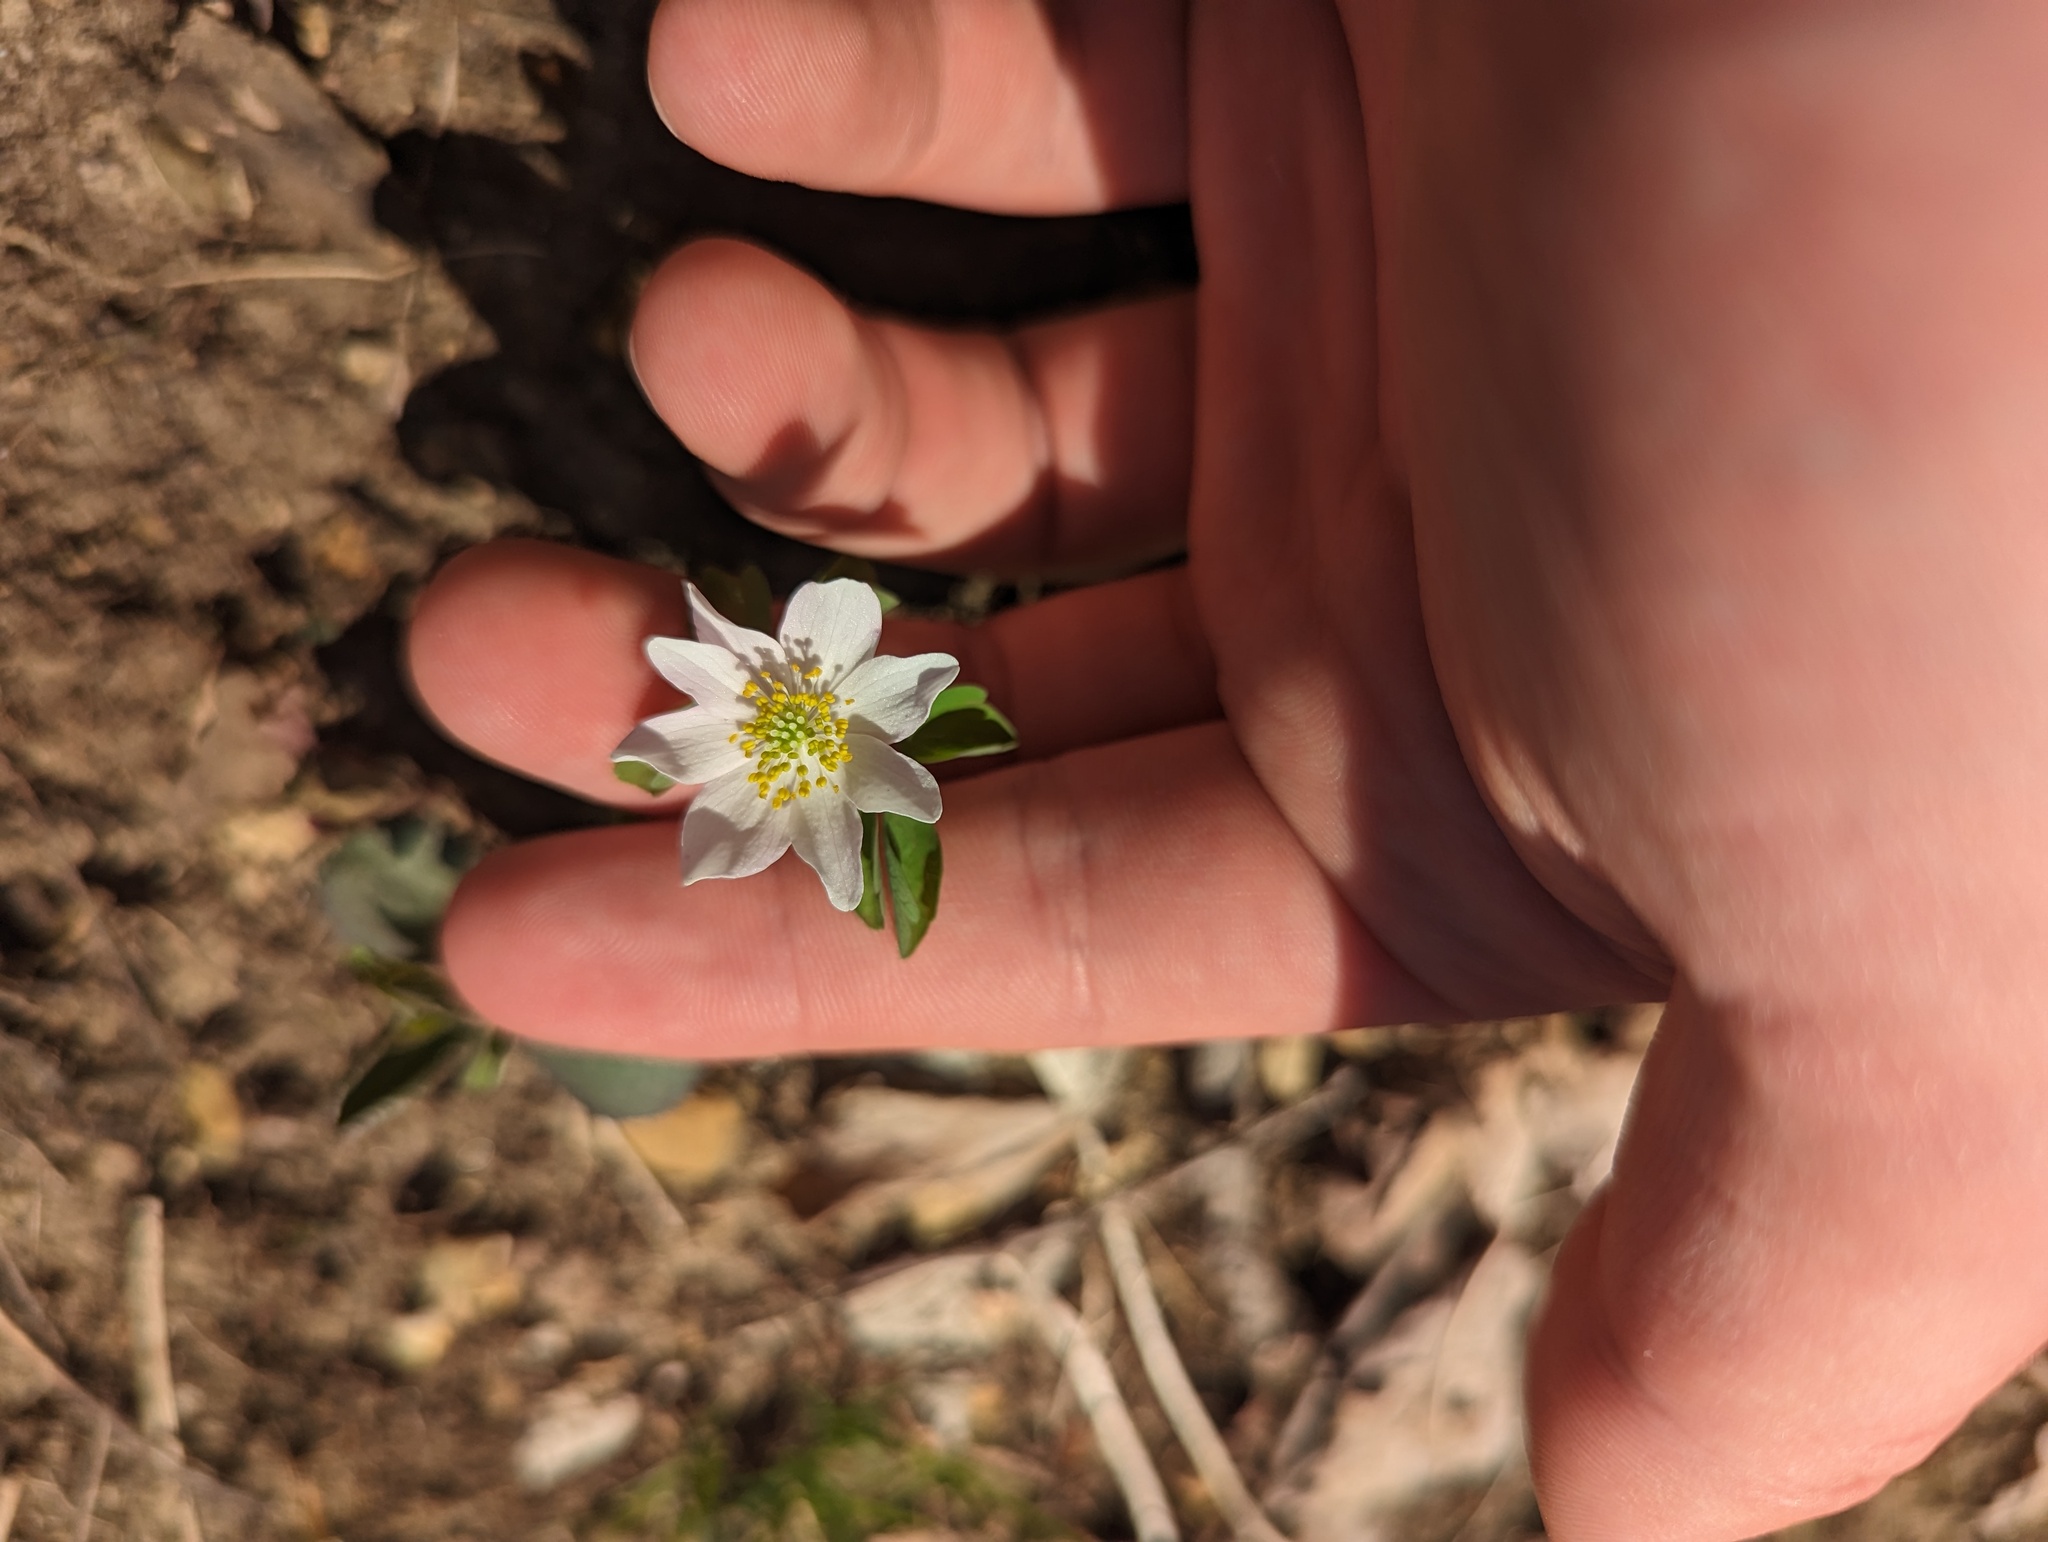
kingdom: Plantae
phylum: Tracheophyta
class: Magnoliopsida
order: Ranunculales
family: Ranunculaceae
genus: Thalictrum
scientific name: Thalictrum thalictroides
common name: Rue-anemone
